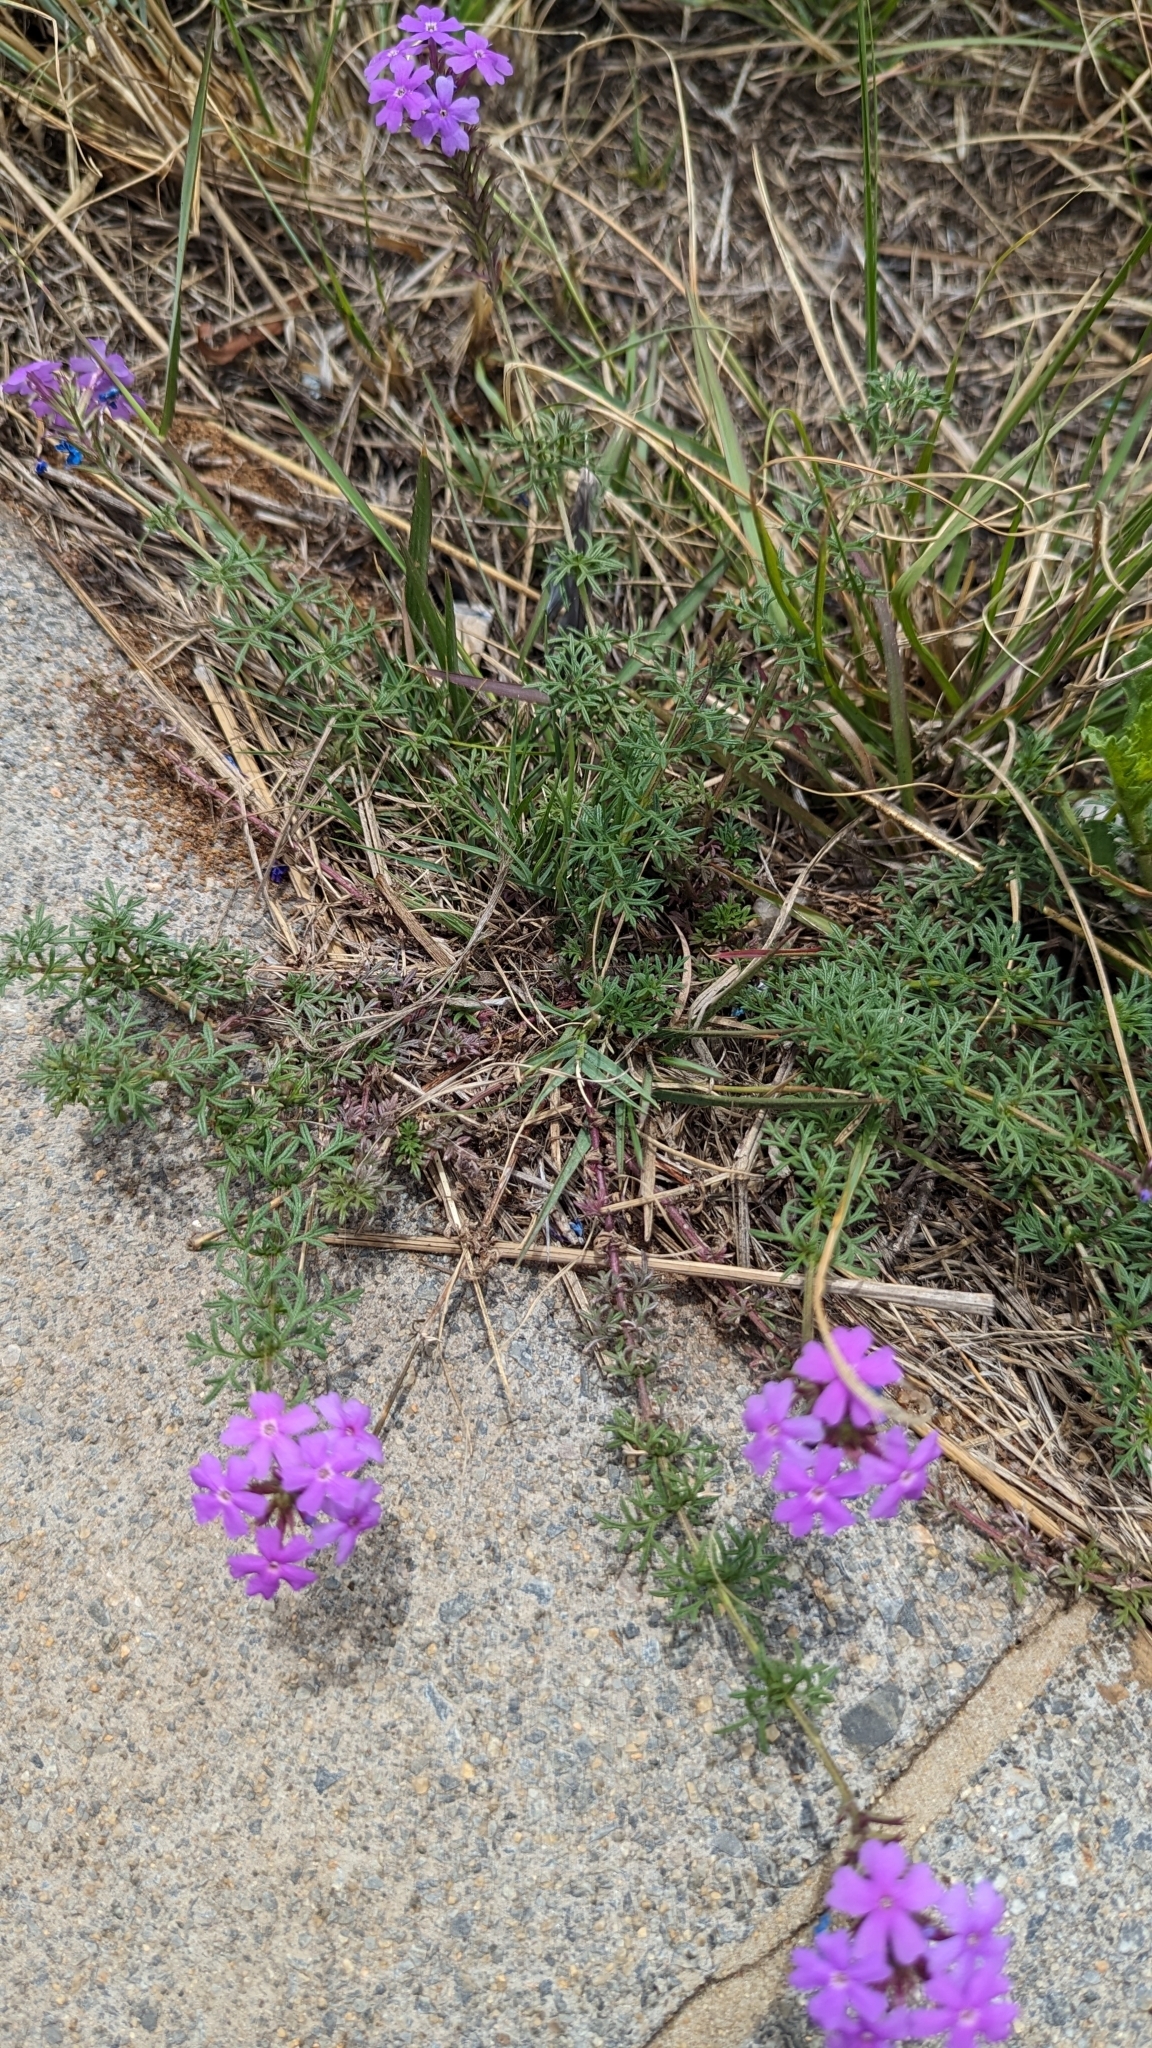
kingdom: Plantae
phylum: Tracheophyta
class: Magnoliopsida
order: Lamiales
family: Verbenaceae
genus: Verbena
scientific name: Verbena aristigera
